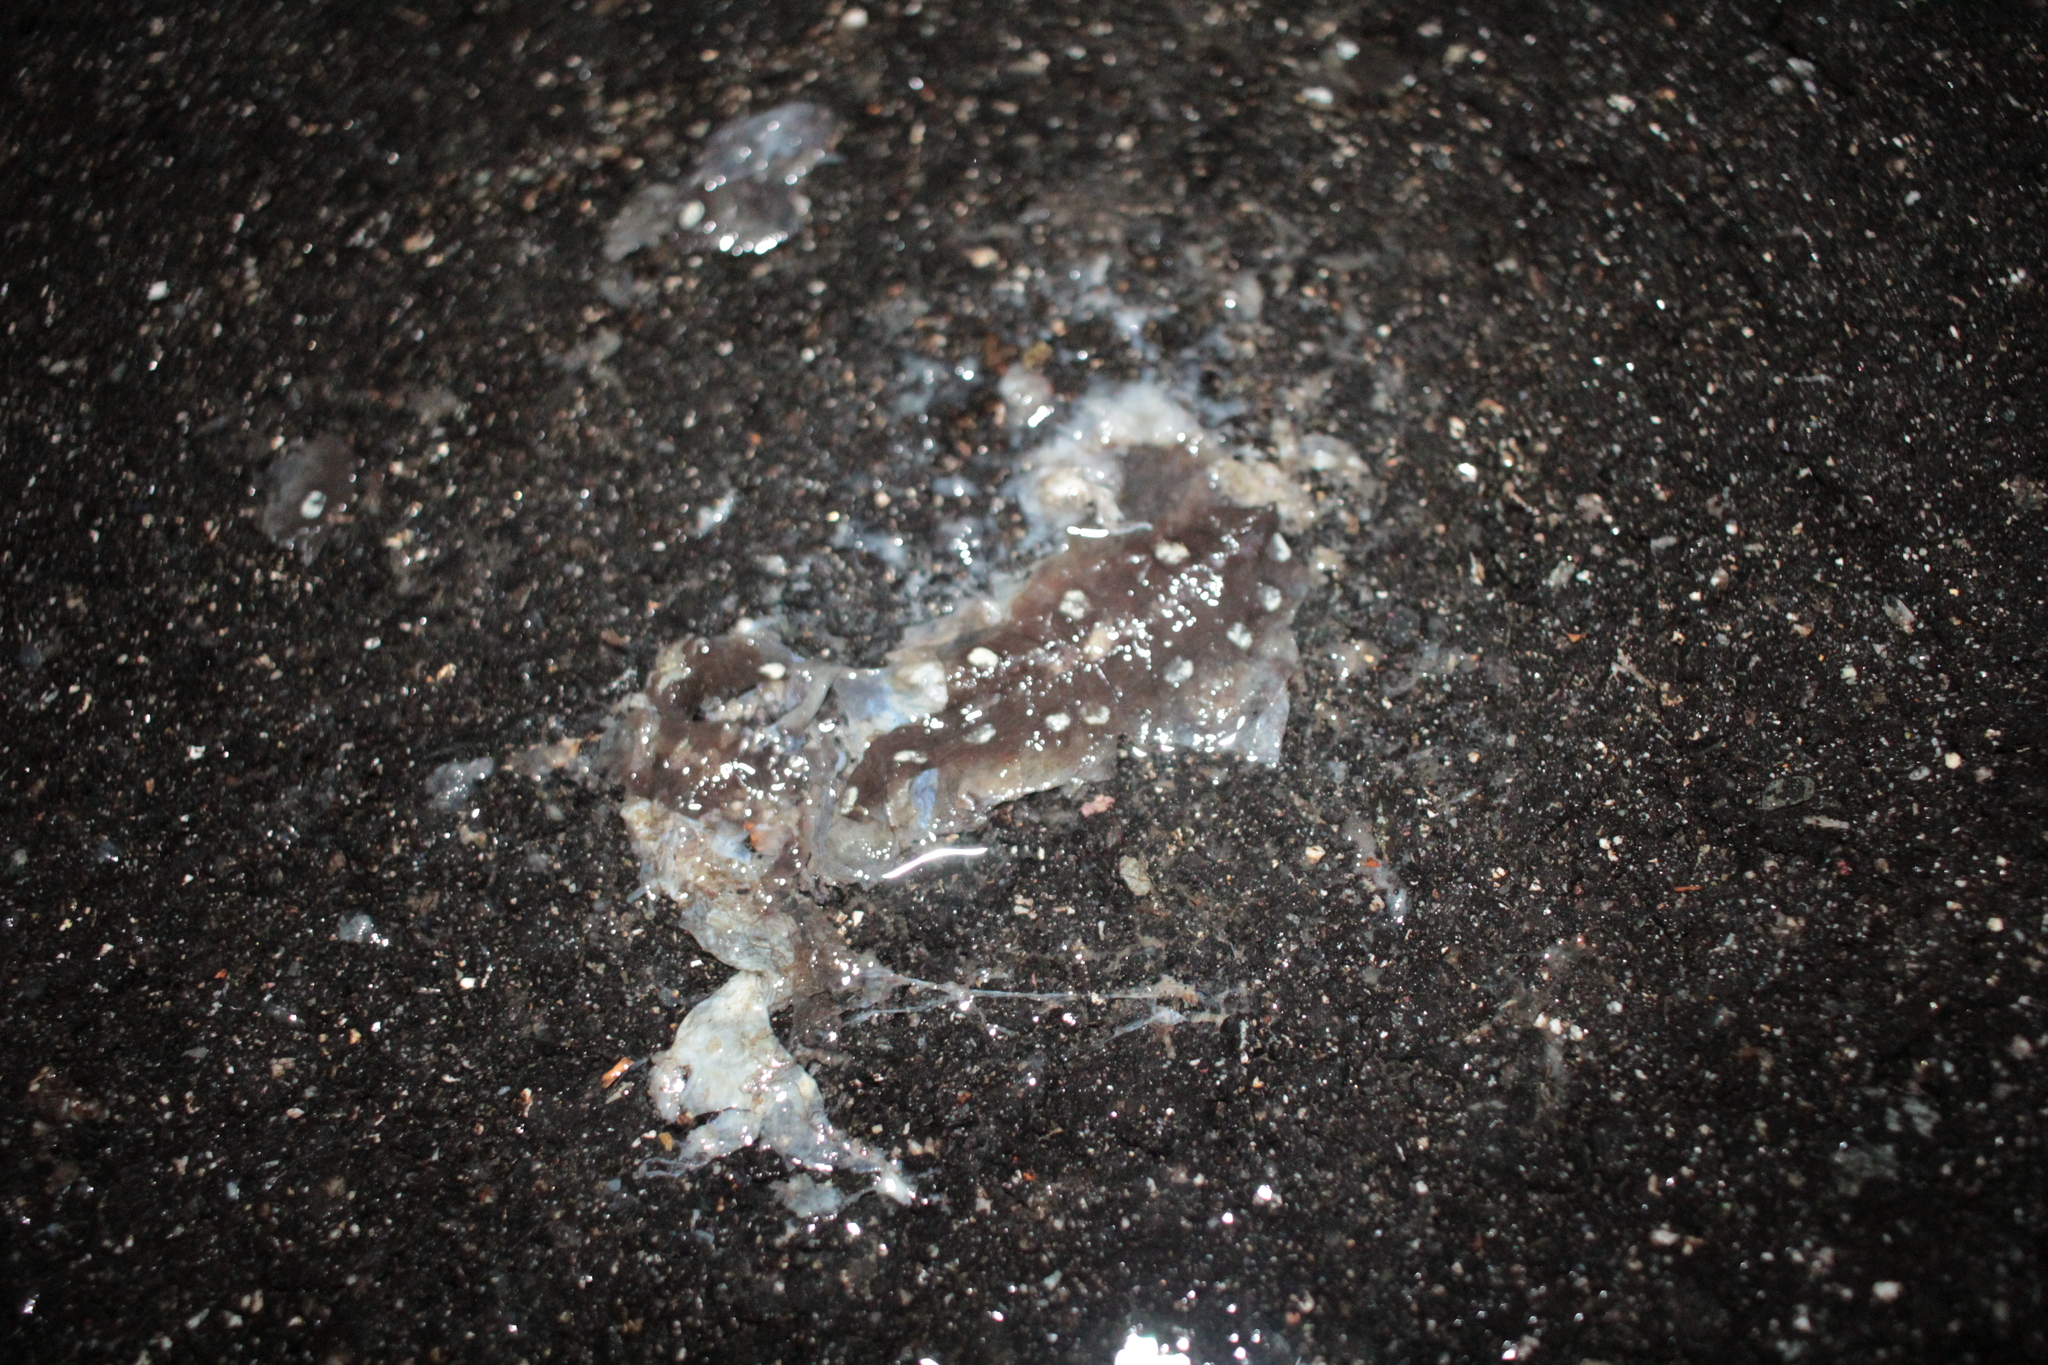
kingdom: Animalia
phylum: Chordata
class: Amphibia
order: Caudata
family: Ambystomatidae
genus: Ambystoma
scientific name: Ambystoma maculatum
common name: Spotted salamander
